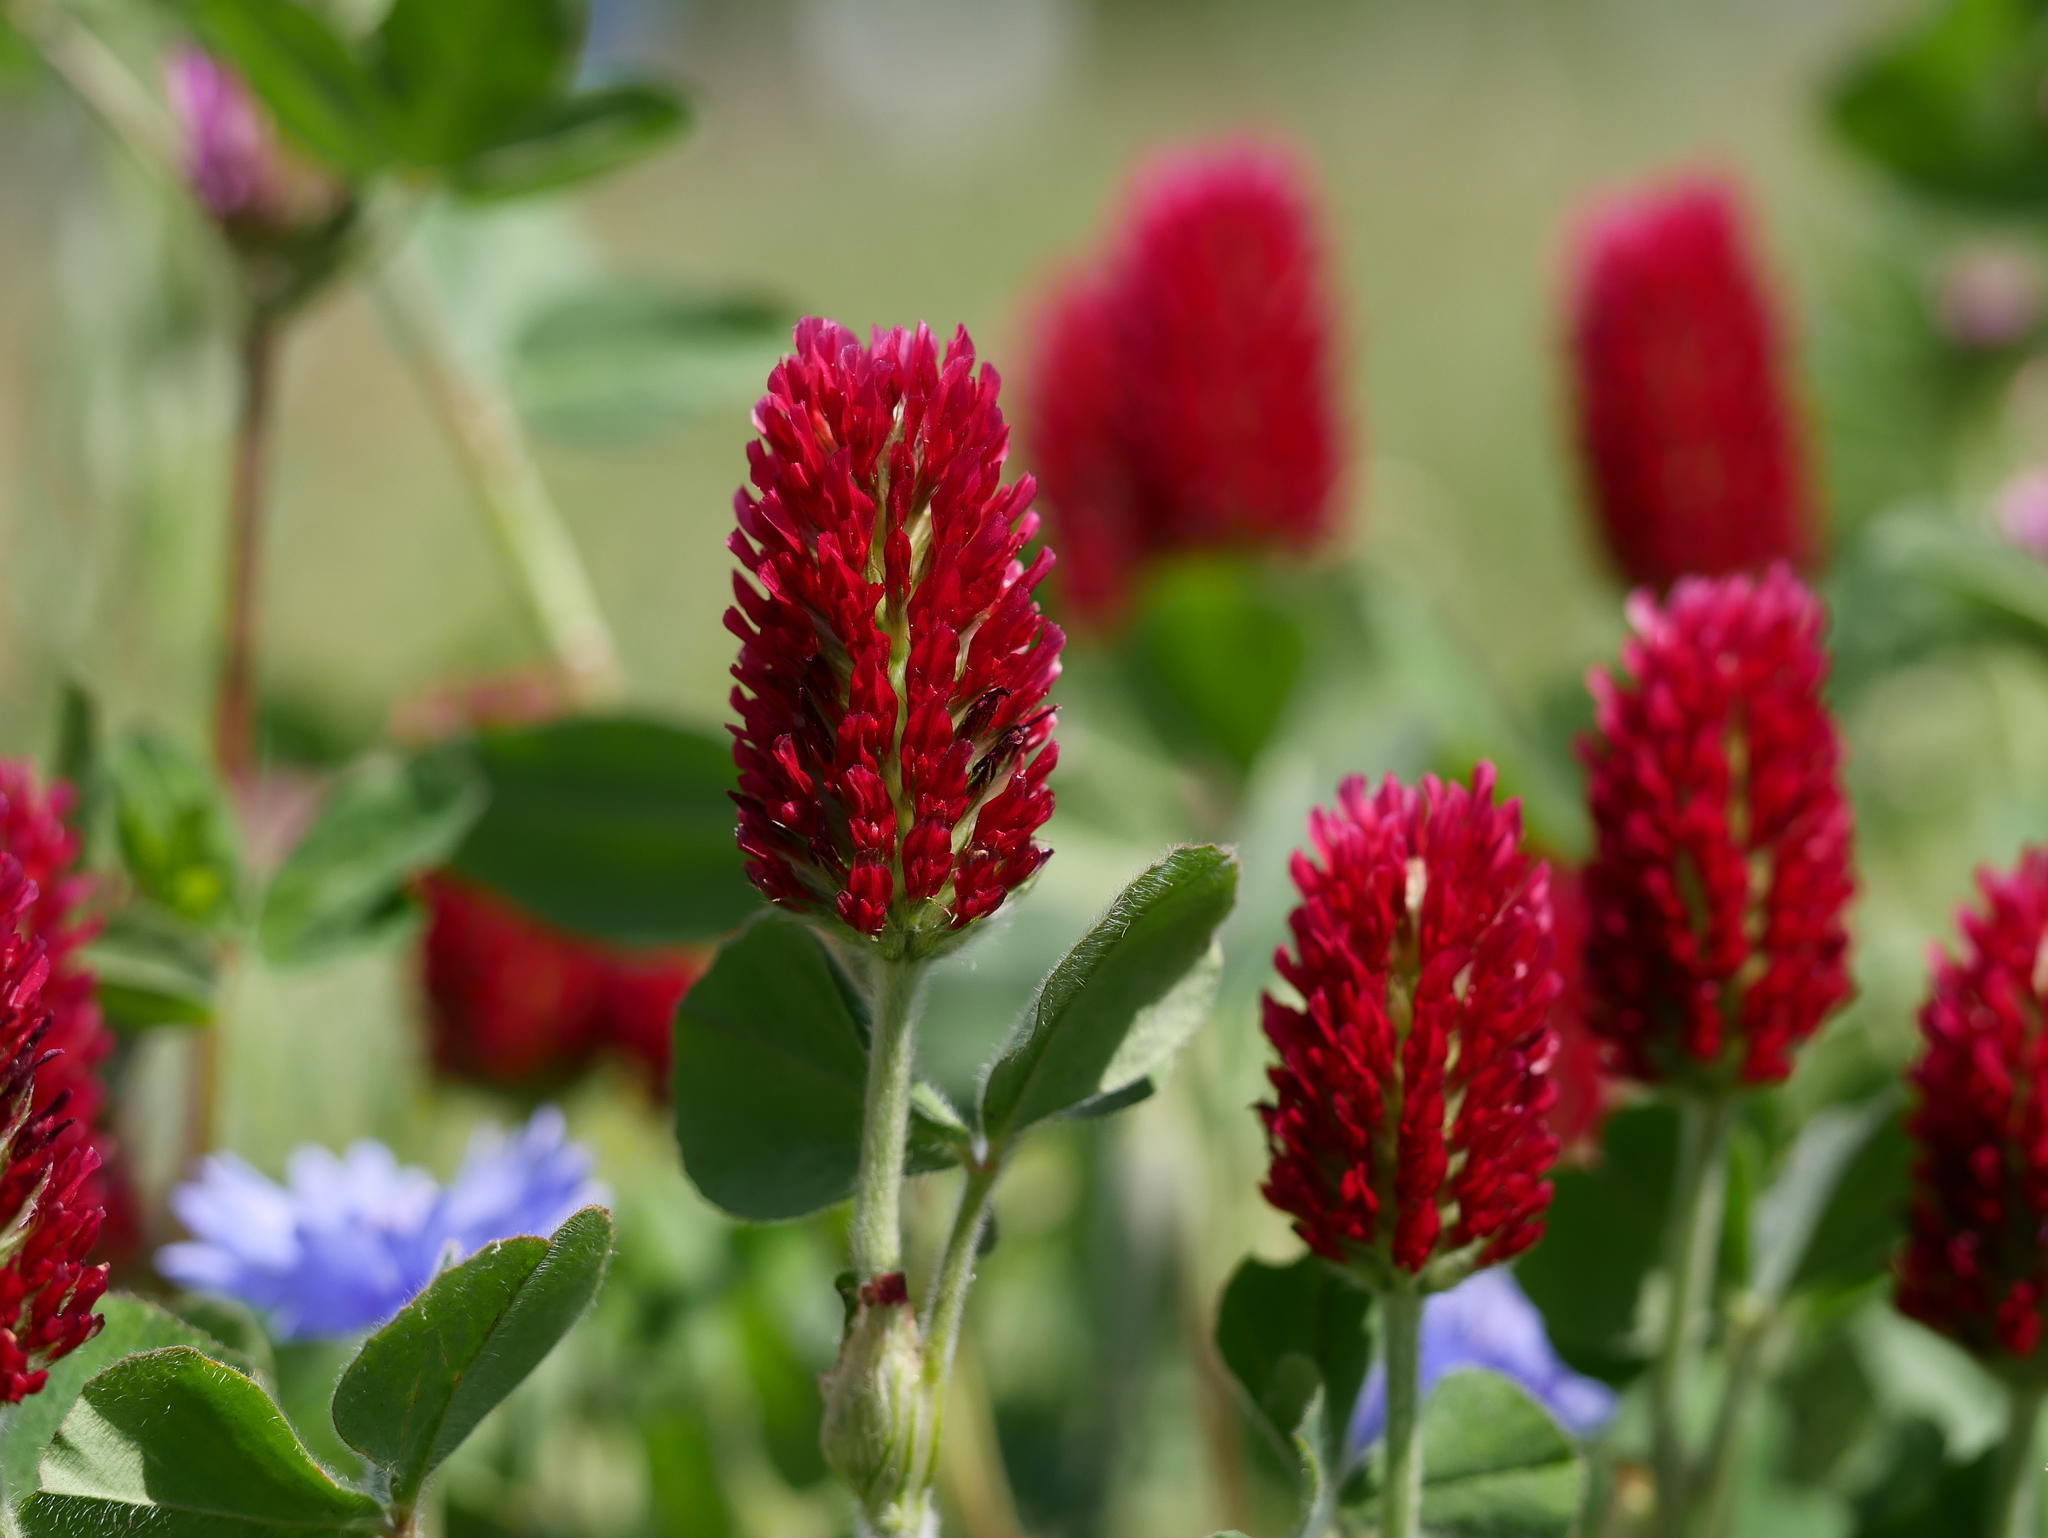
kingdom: Plantae
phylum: Tracheophyta
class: Magnoliopsida
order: Fabales
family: Fabaceae
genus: Trifolium
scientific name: Trifolium incarnatum
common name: Crimson clover
